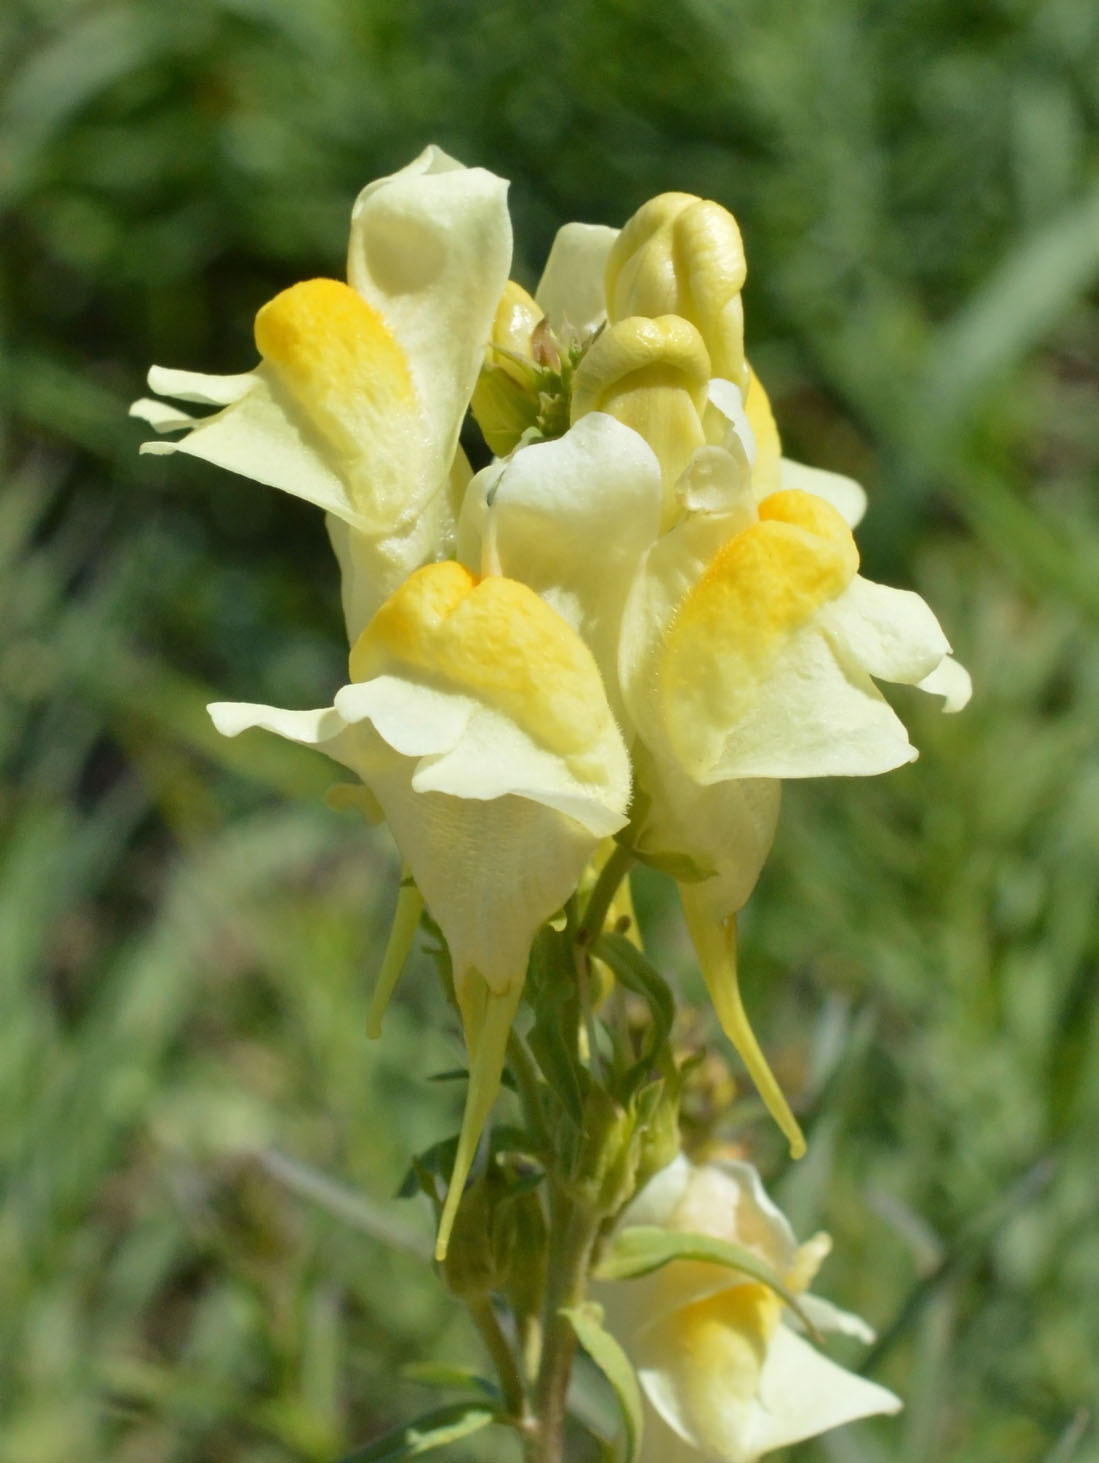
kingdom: Plantae
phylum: Tracheophyta
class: Magnoliopsida
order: Lamiales
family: Plantaginaceae
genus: Linaria
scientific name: Linaria vulgaris
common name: Butter and eggs
